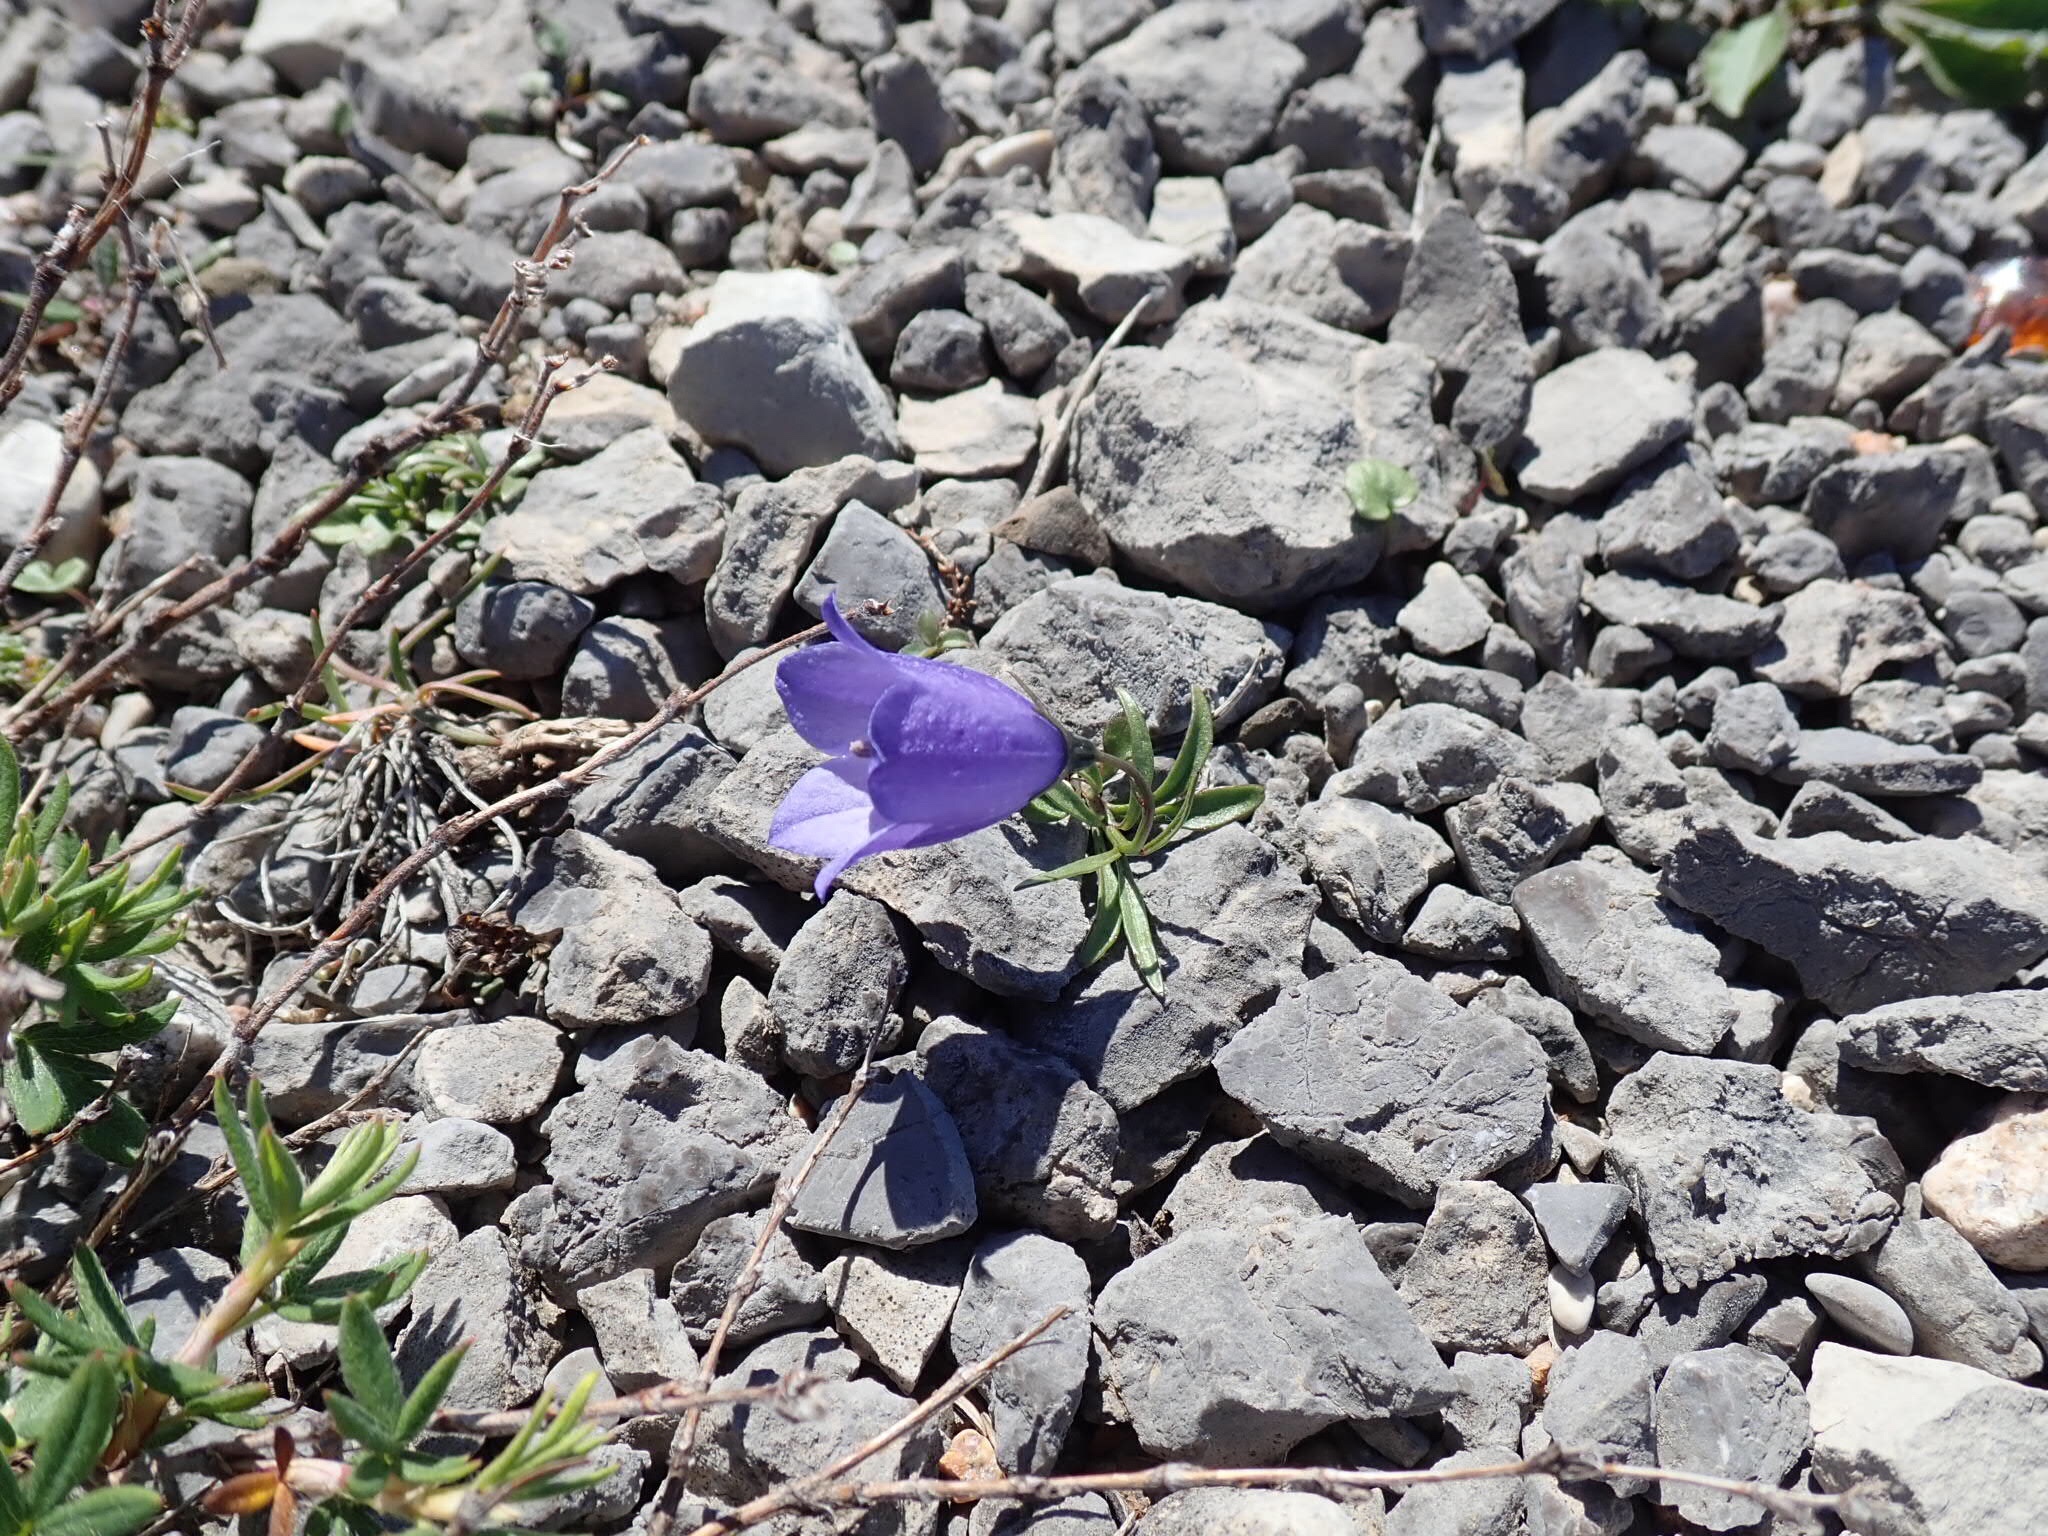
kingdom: Plantae
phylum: Tracheophyta
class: Magnoliopsida
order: Asterales
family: Campanulaceae
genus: Campanula
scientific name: Campanula giesekiana
